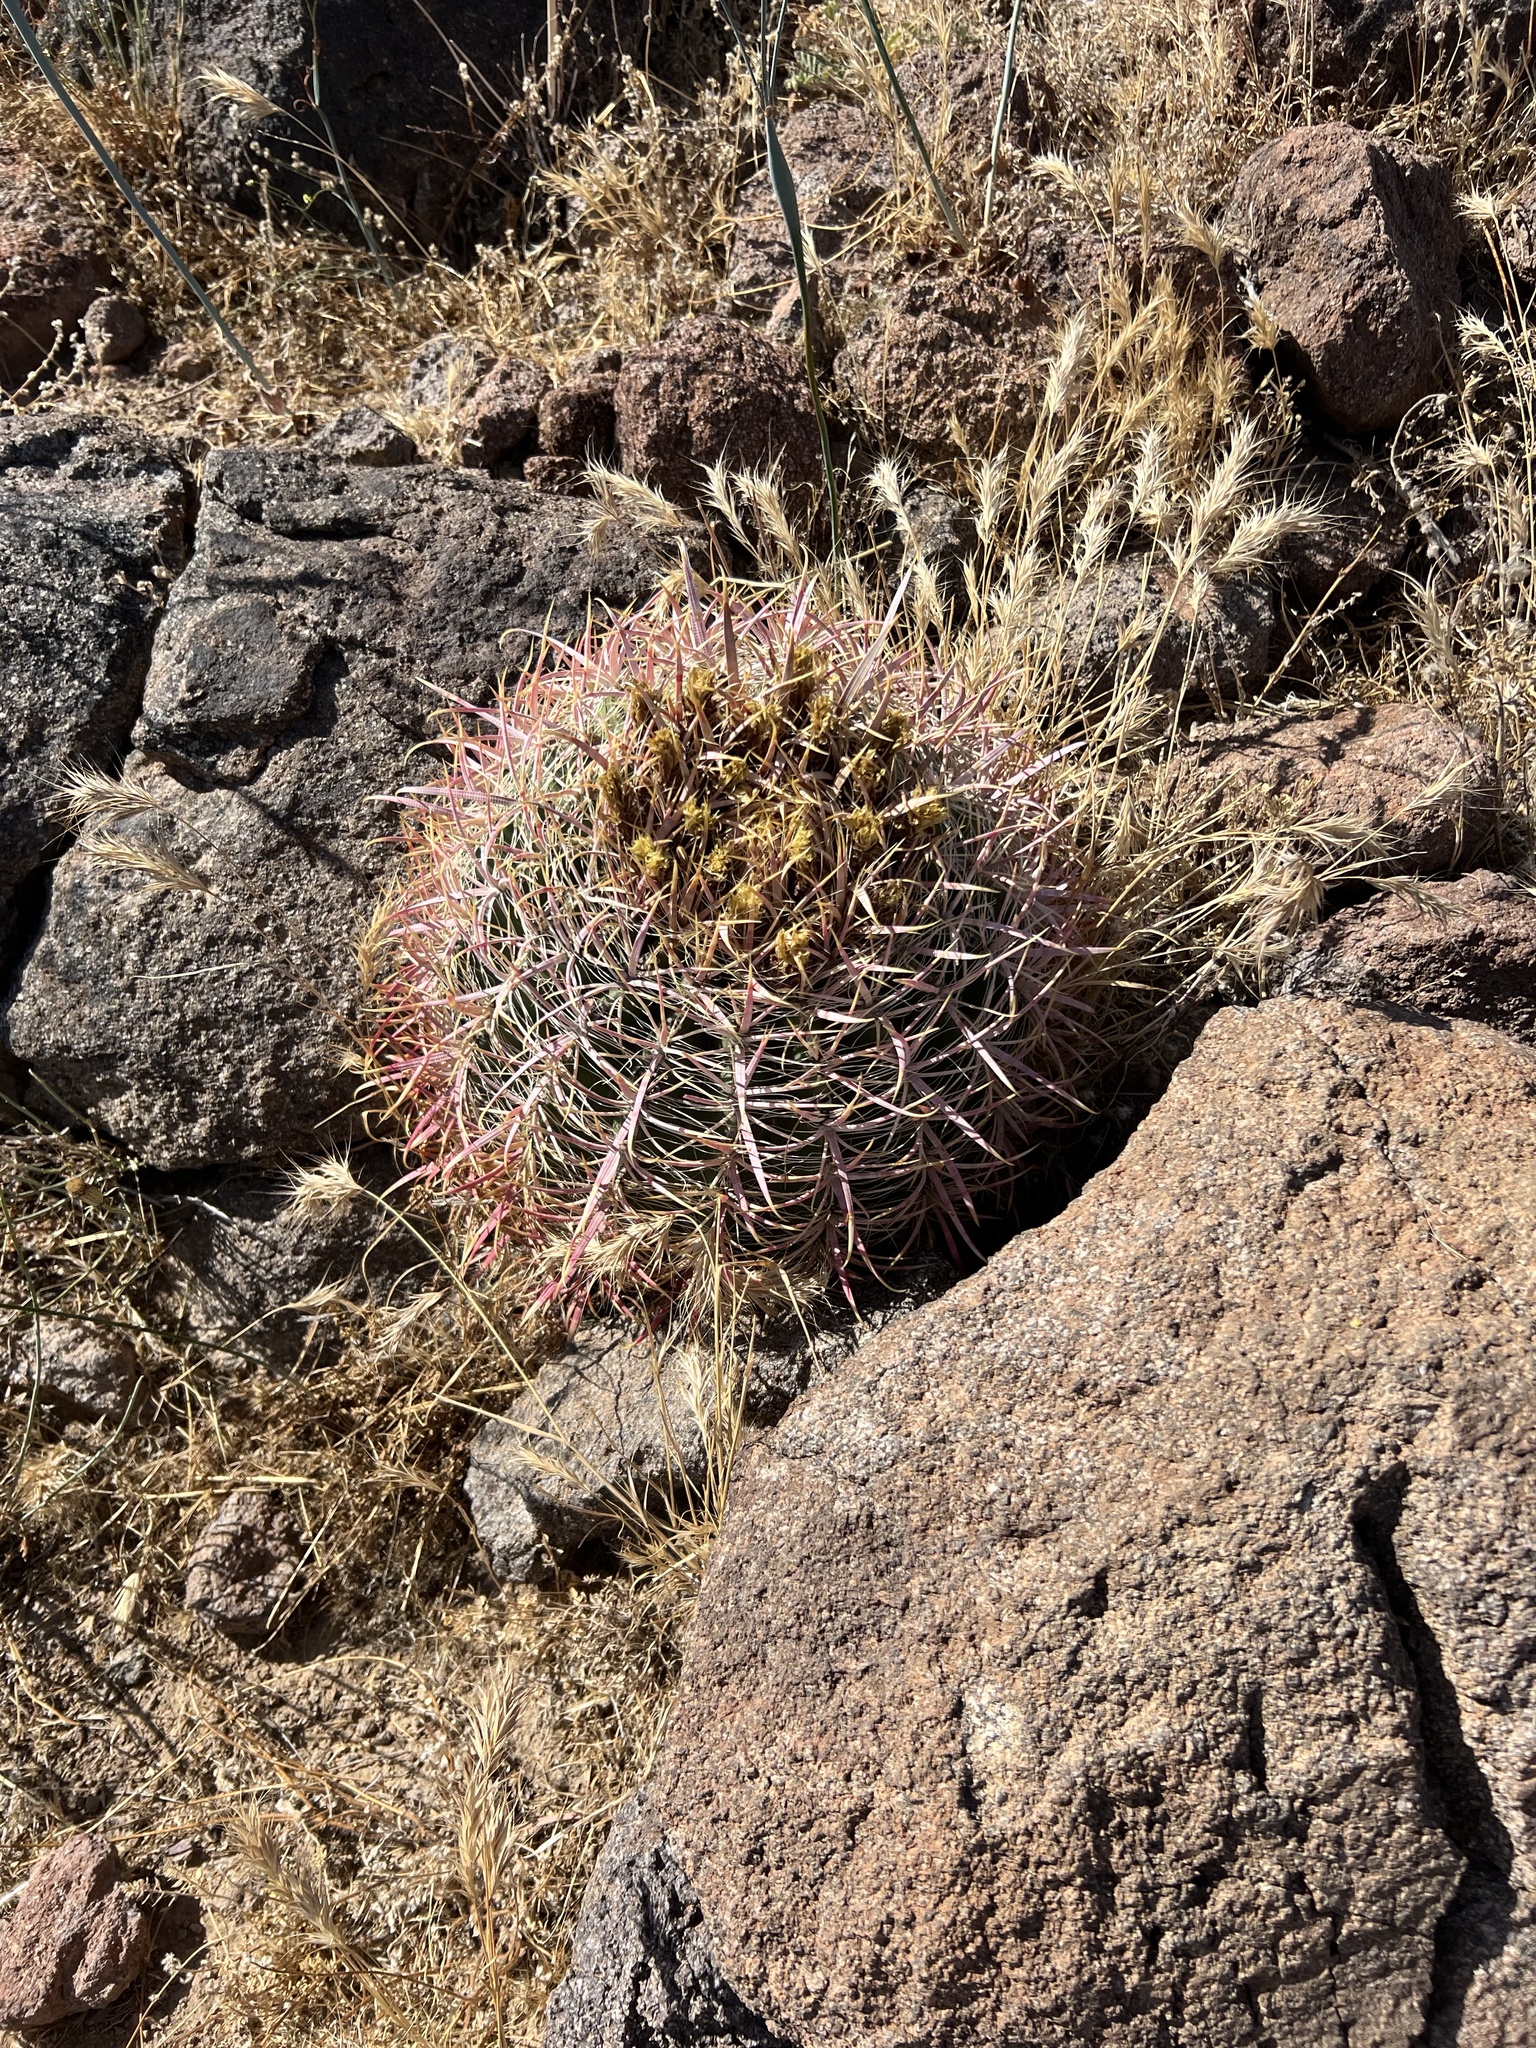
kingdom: Plantae
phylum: Tracheophyta
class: Magnoliopsida
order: Caryophyllales
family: Cactaceae
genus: Ferocactus
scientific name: Ferocactus cylindraceus
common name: California barrel cactus
